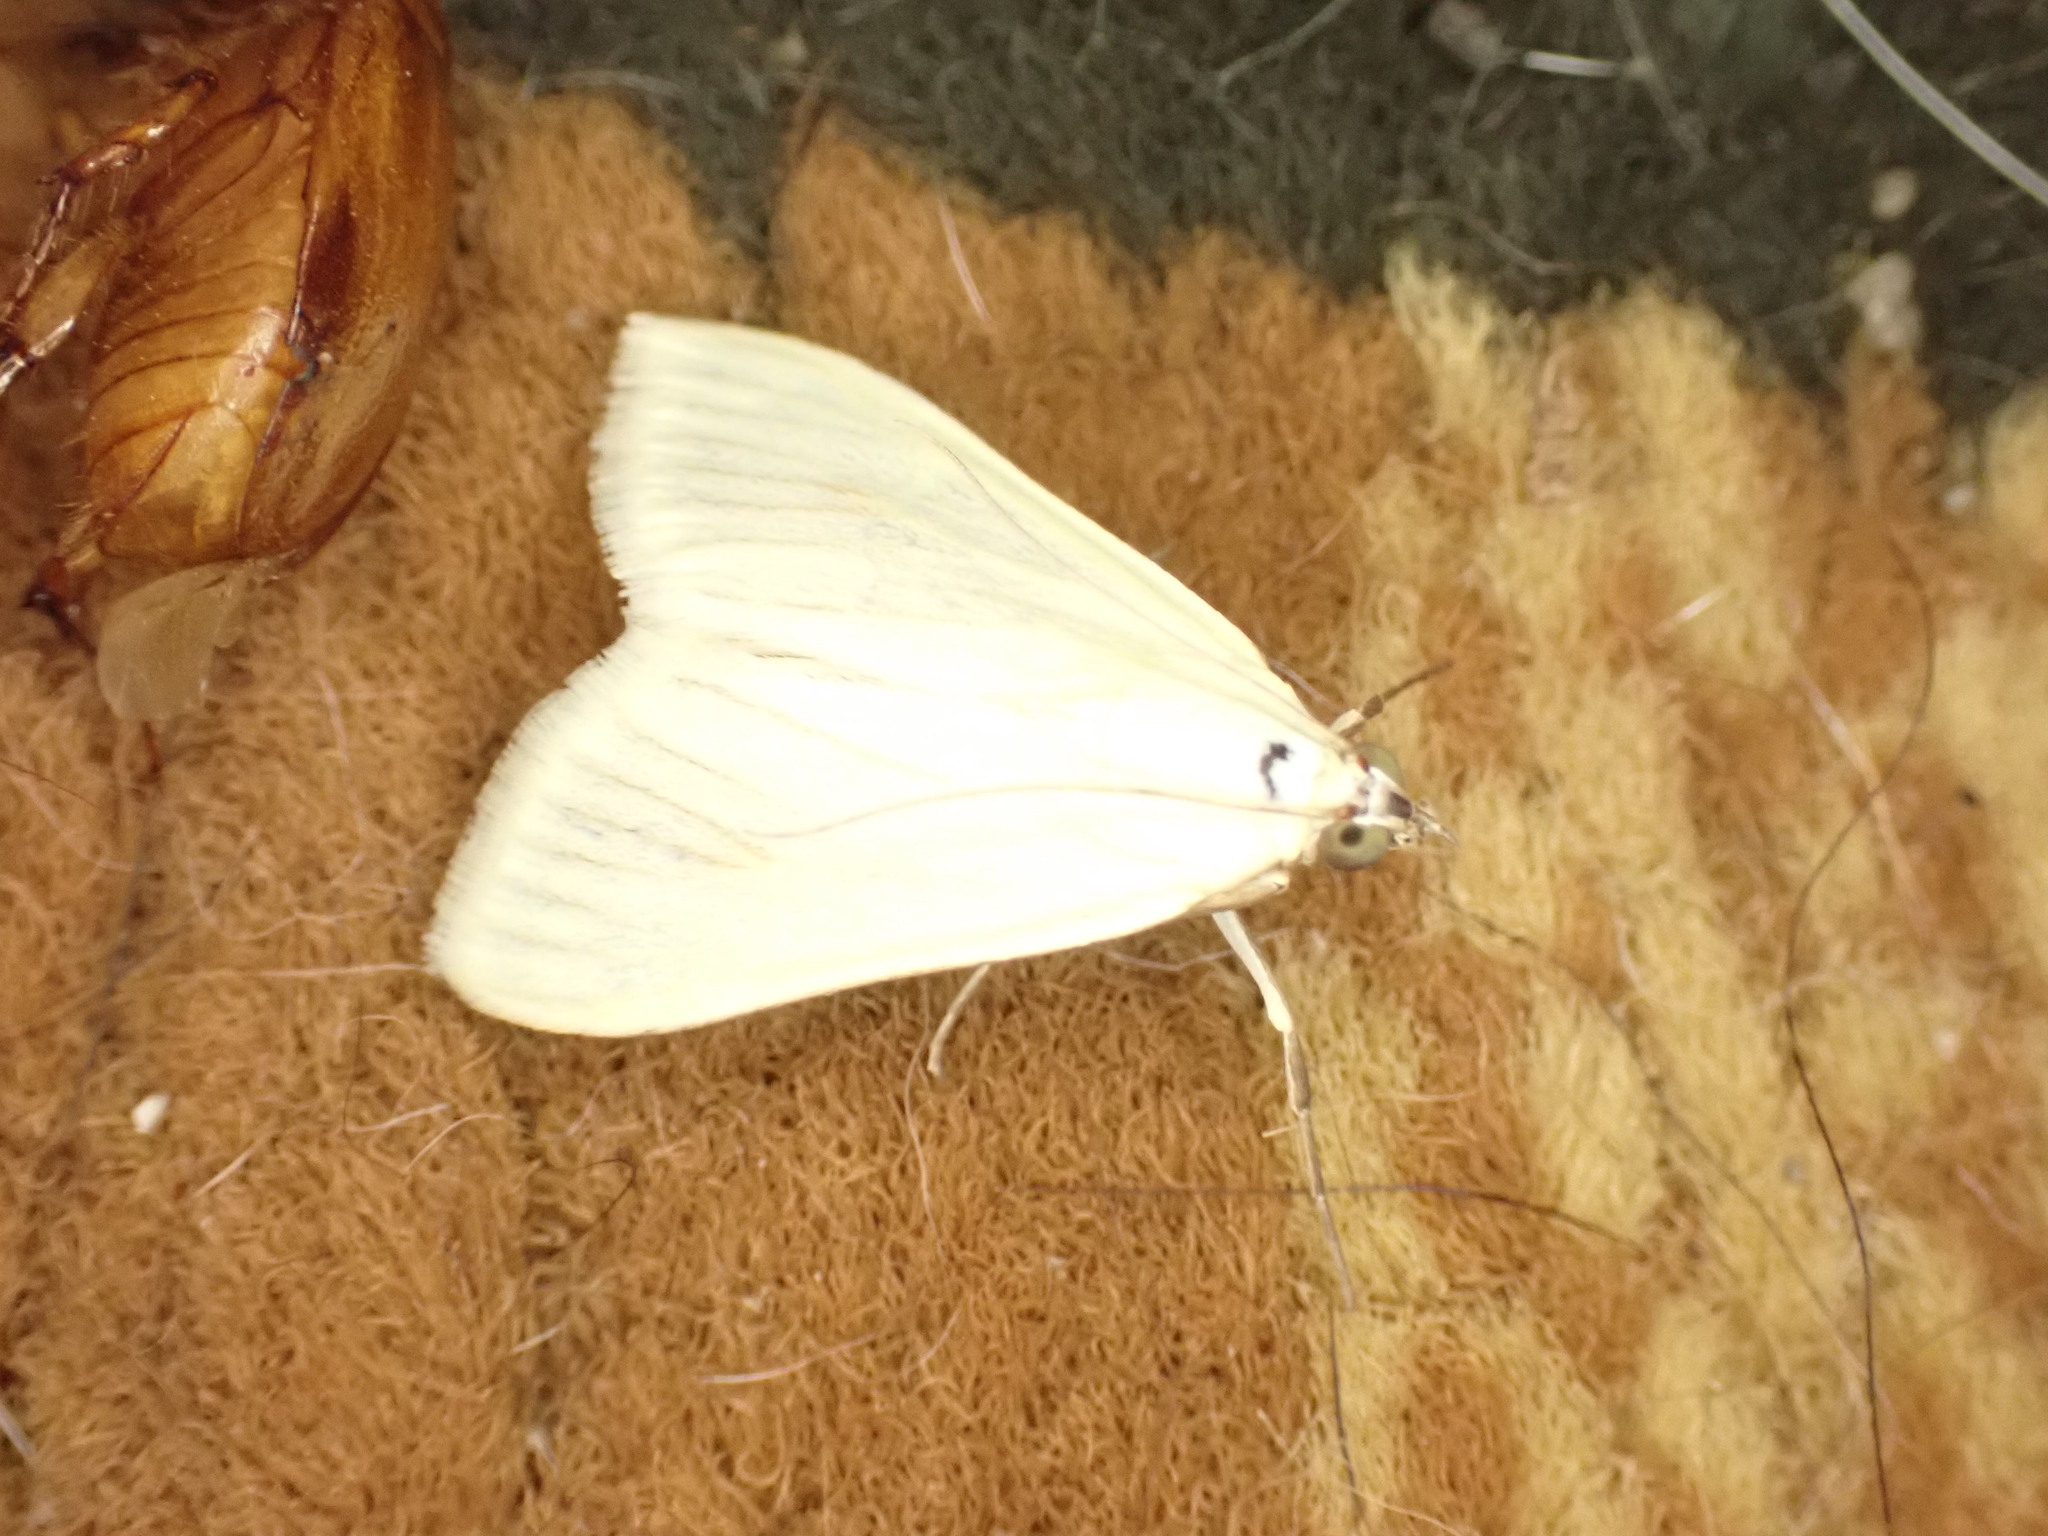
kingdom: Animalia
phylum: Arthropoda
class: Insecta
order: Lepidoptera
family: Crambidae
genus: Sitochroa
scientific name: Sitochroa palealis
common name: Greenish-yellow sitochroa moth
